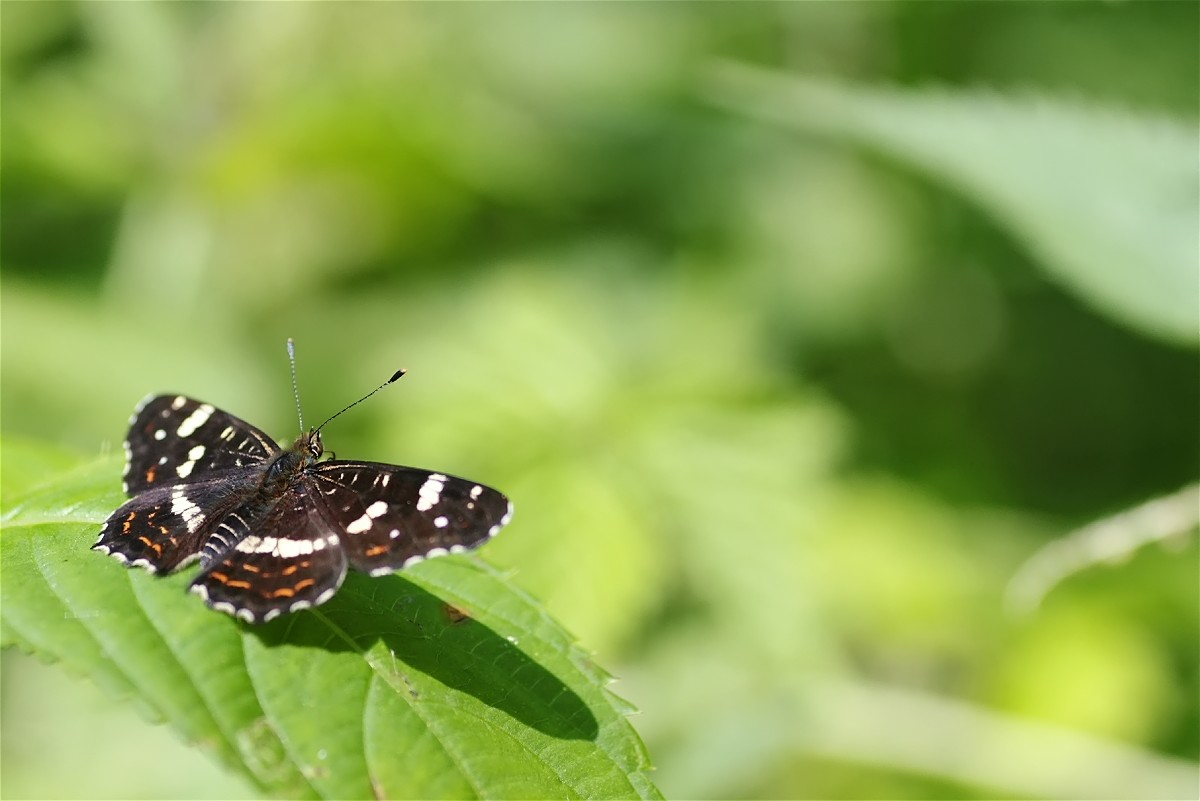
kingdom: Animalia
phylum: Arthropoda
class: Insecta
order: Lepidoptera
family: Nymphalidae
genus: Araschnia
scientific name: Araschnia levana
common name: Map butterfly
